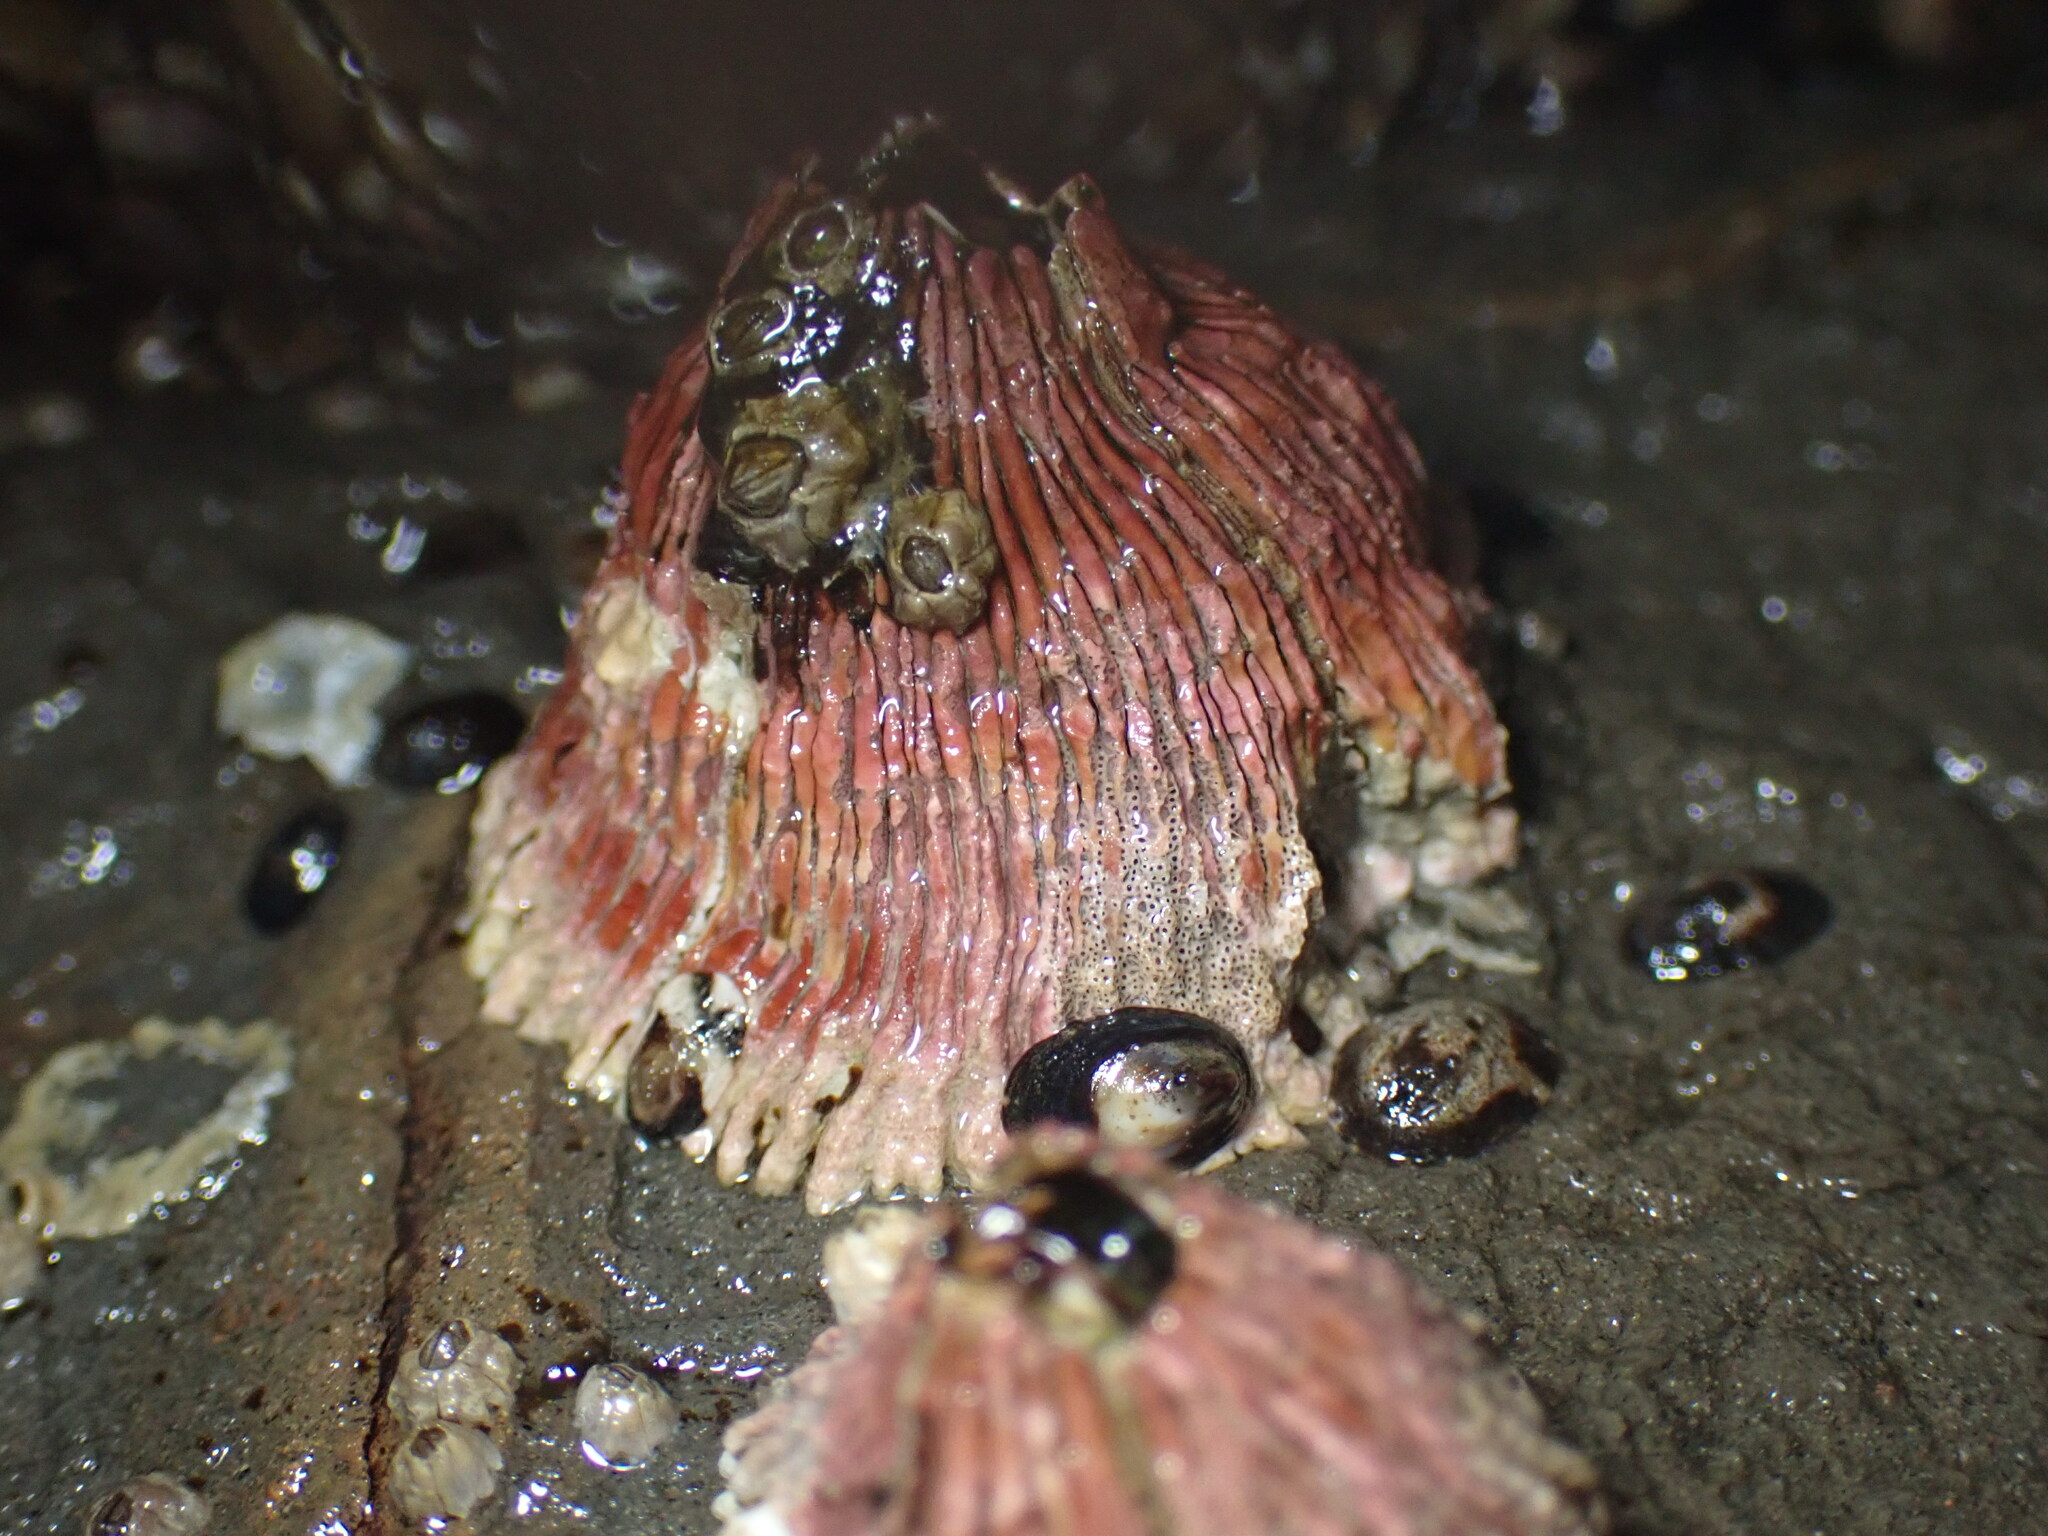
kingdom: Animalia
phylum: Arthropoda
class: Maxillopoda
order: Sessilia
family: Tetraclitidae
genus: Tetraclita
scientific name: Tetraclita rubescens
